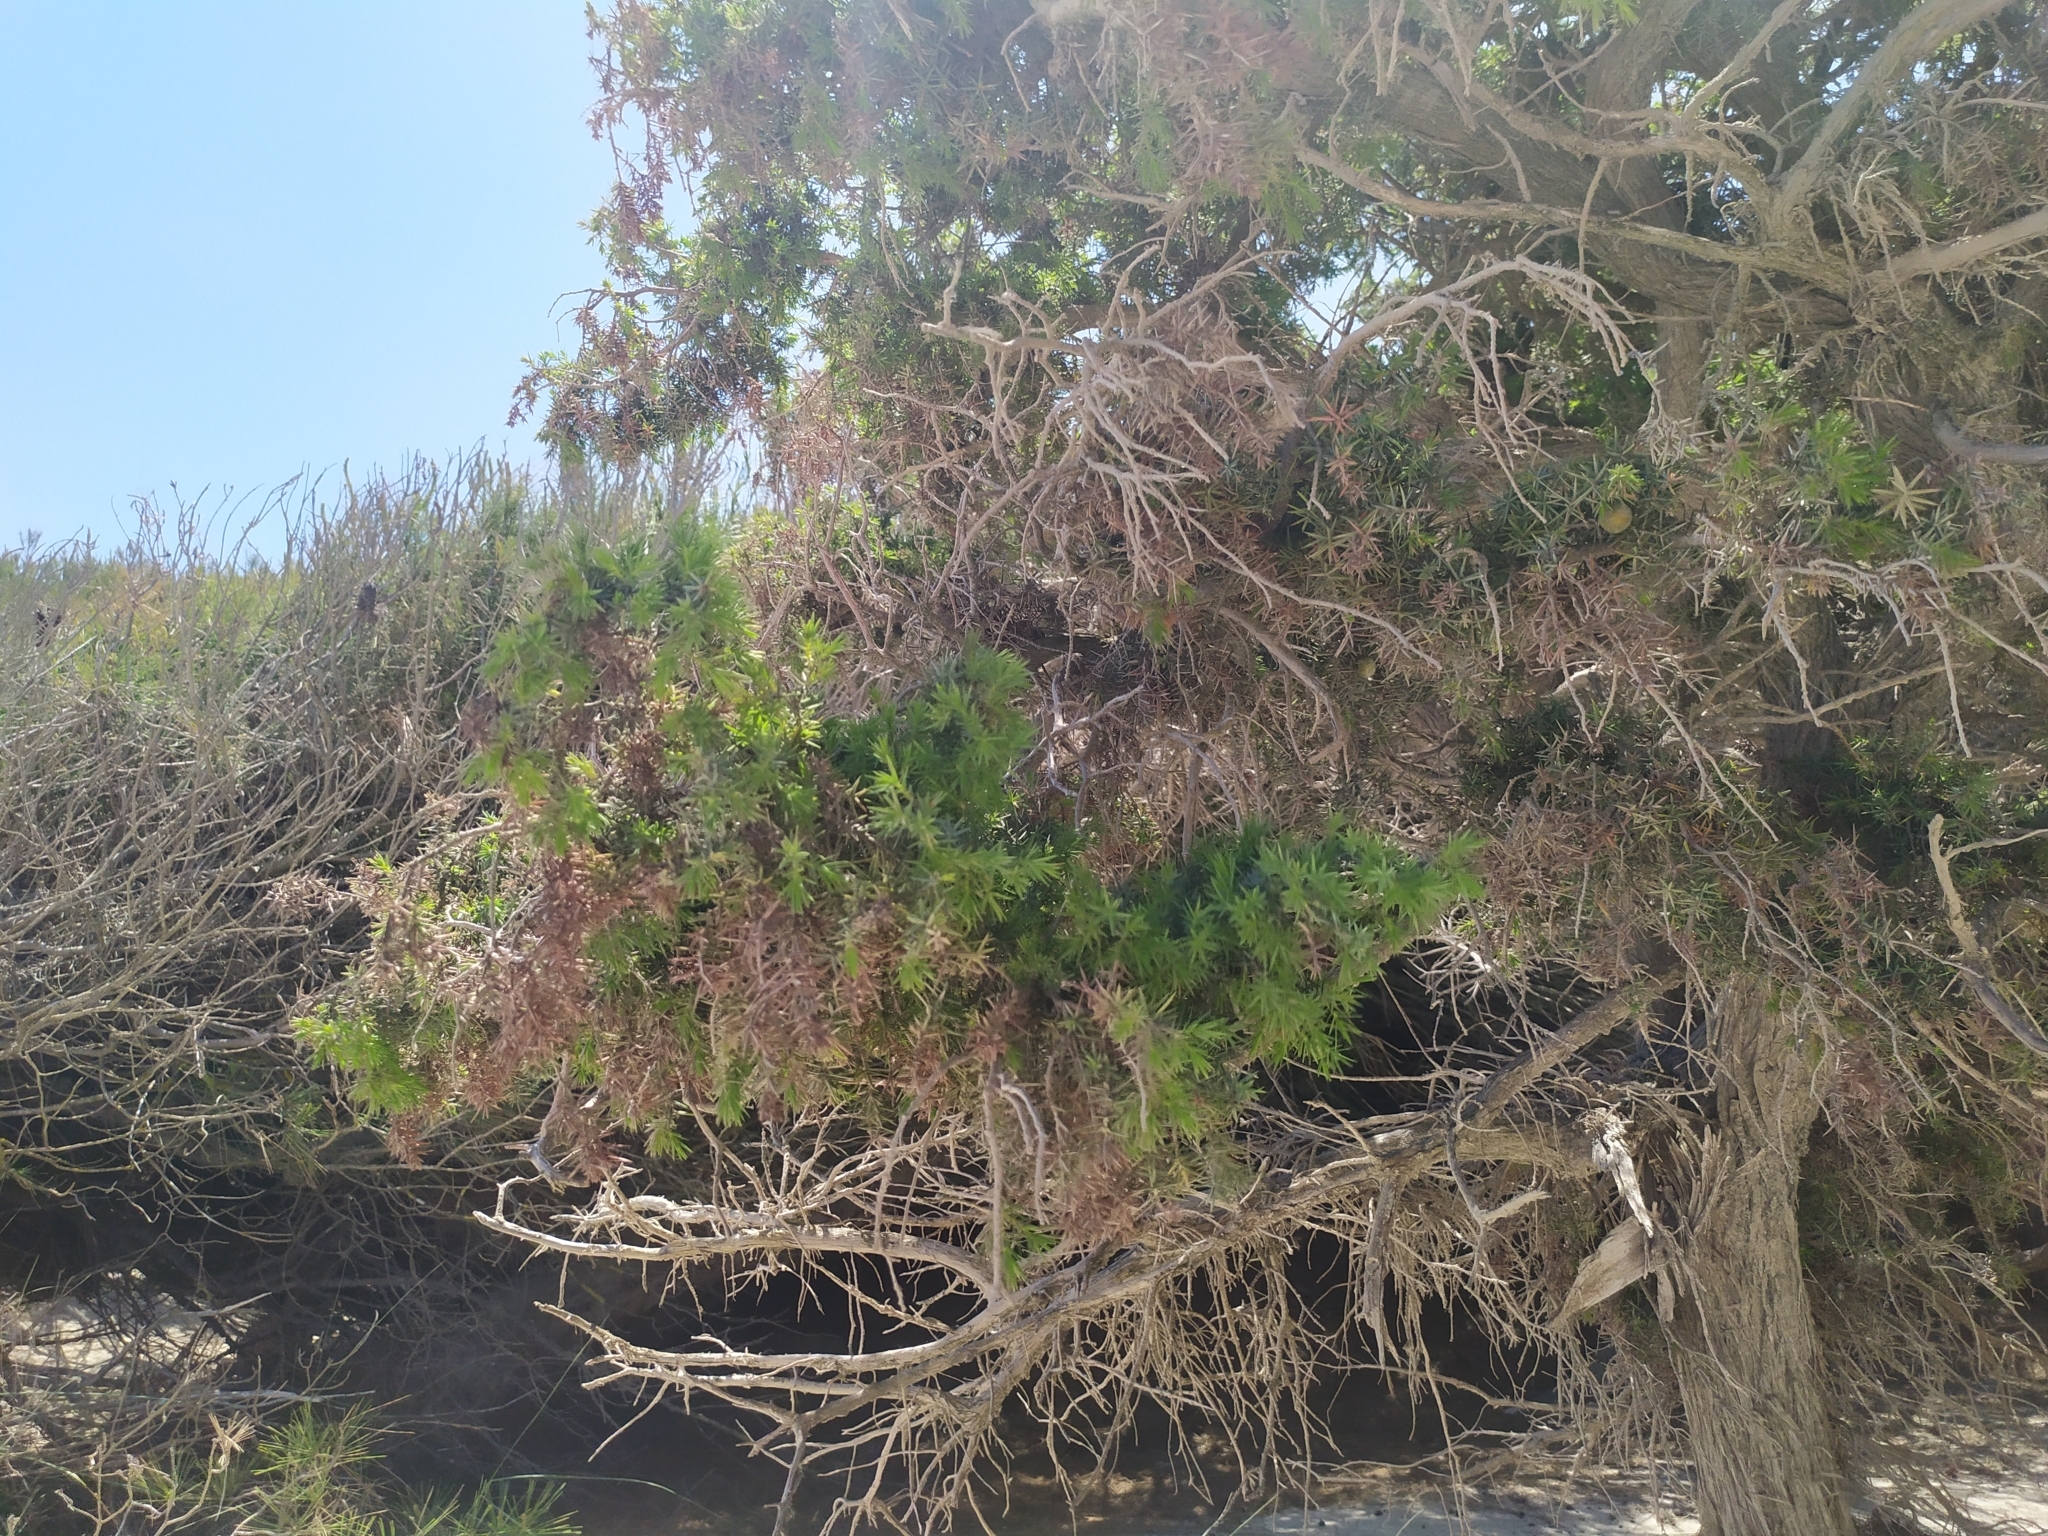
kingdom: Plantae
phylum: Tracheophyta
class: Pinopsida
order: Pinales
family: Cupressaceae
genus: Juniperus
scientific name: Juniperus oxycedrus
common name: Prickly juniper
